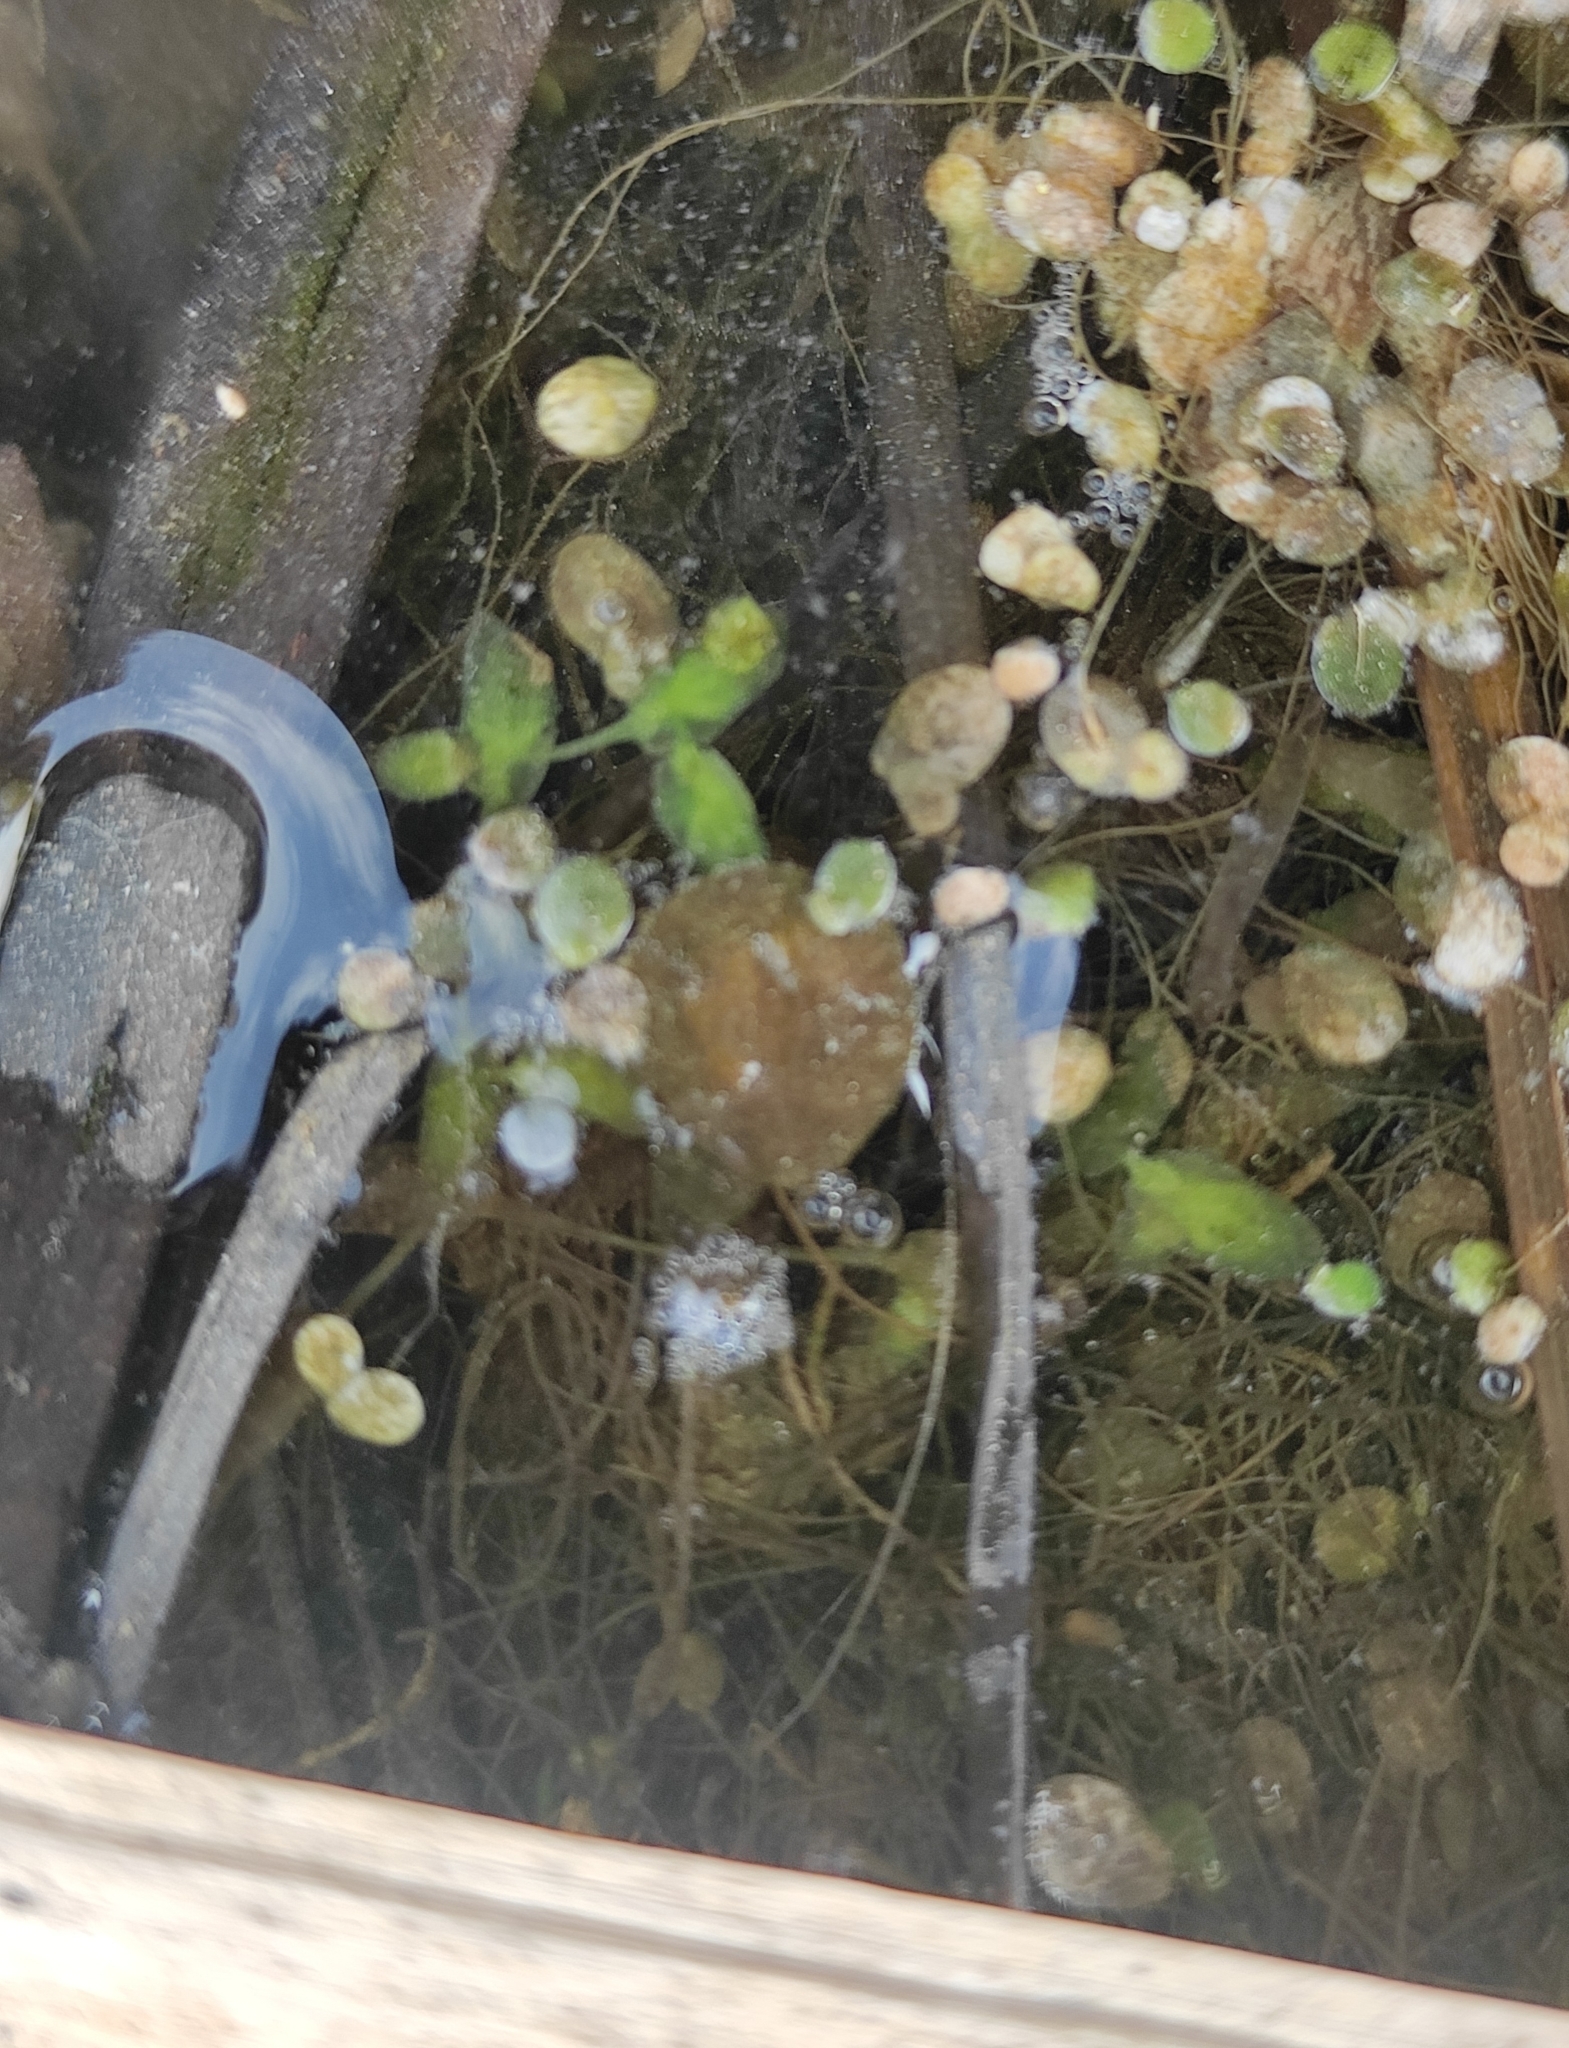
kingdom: Plantae
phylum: Tracheophyta
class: Liliopsida
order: Alismatales
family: Araceae
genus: Lemna
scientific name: Lemna trisulca
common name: Ivy-leaved duckweed
